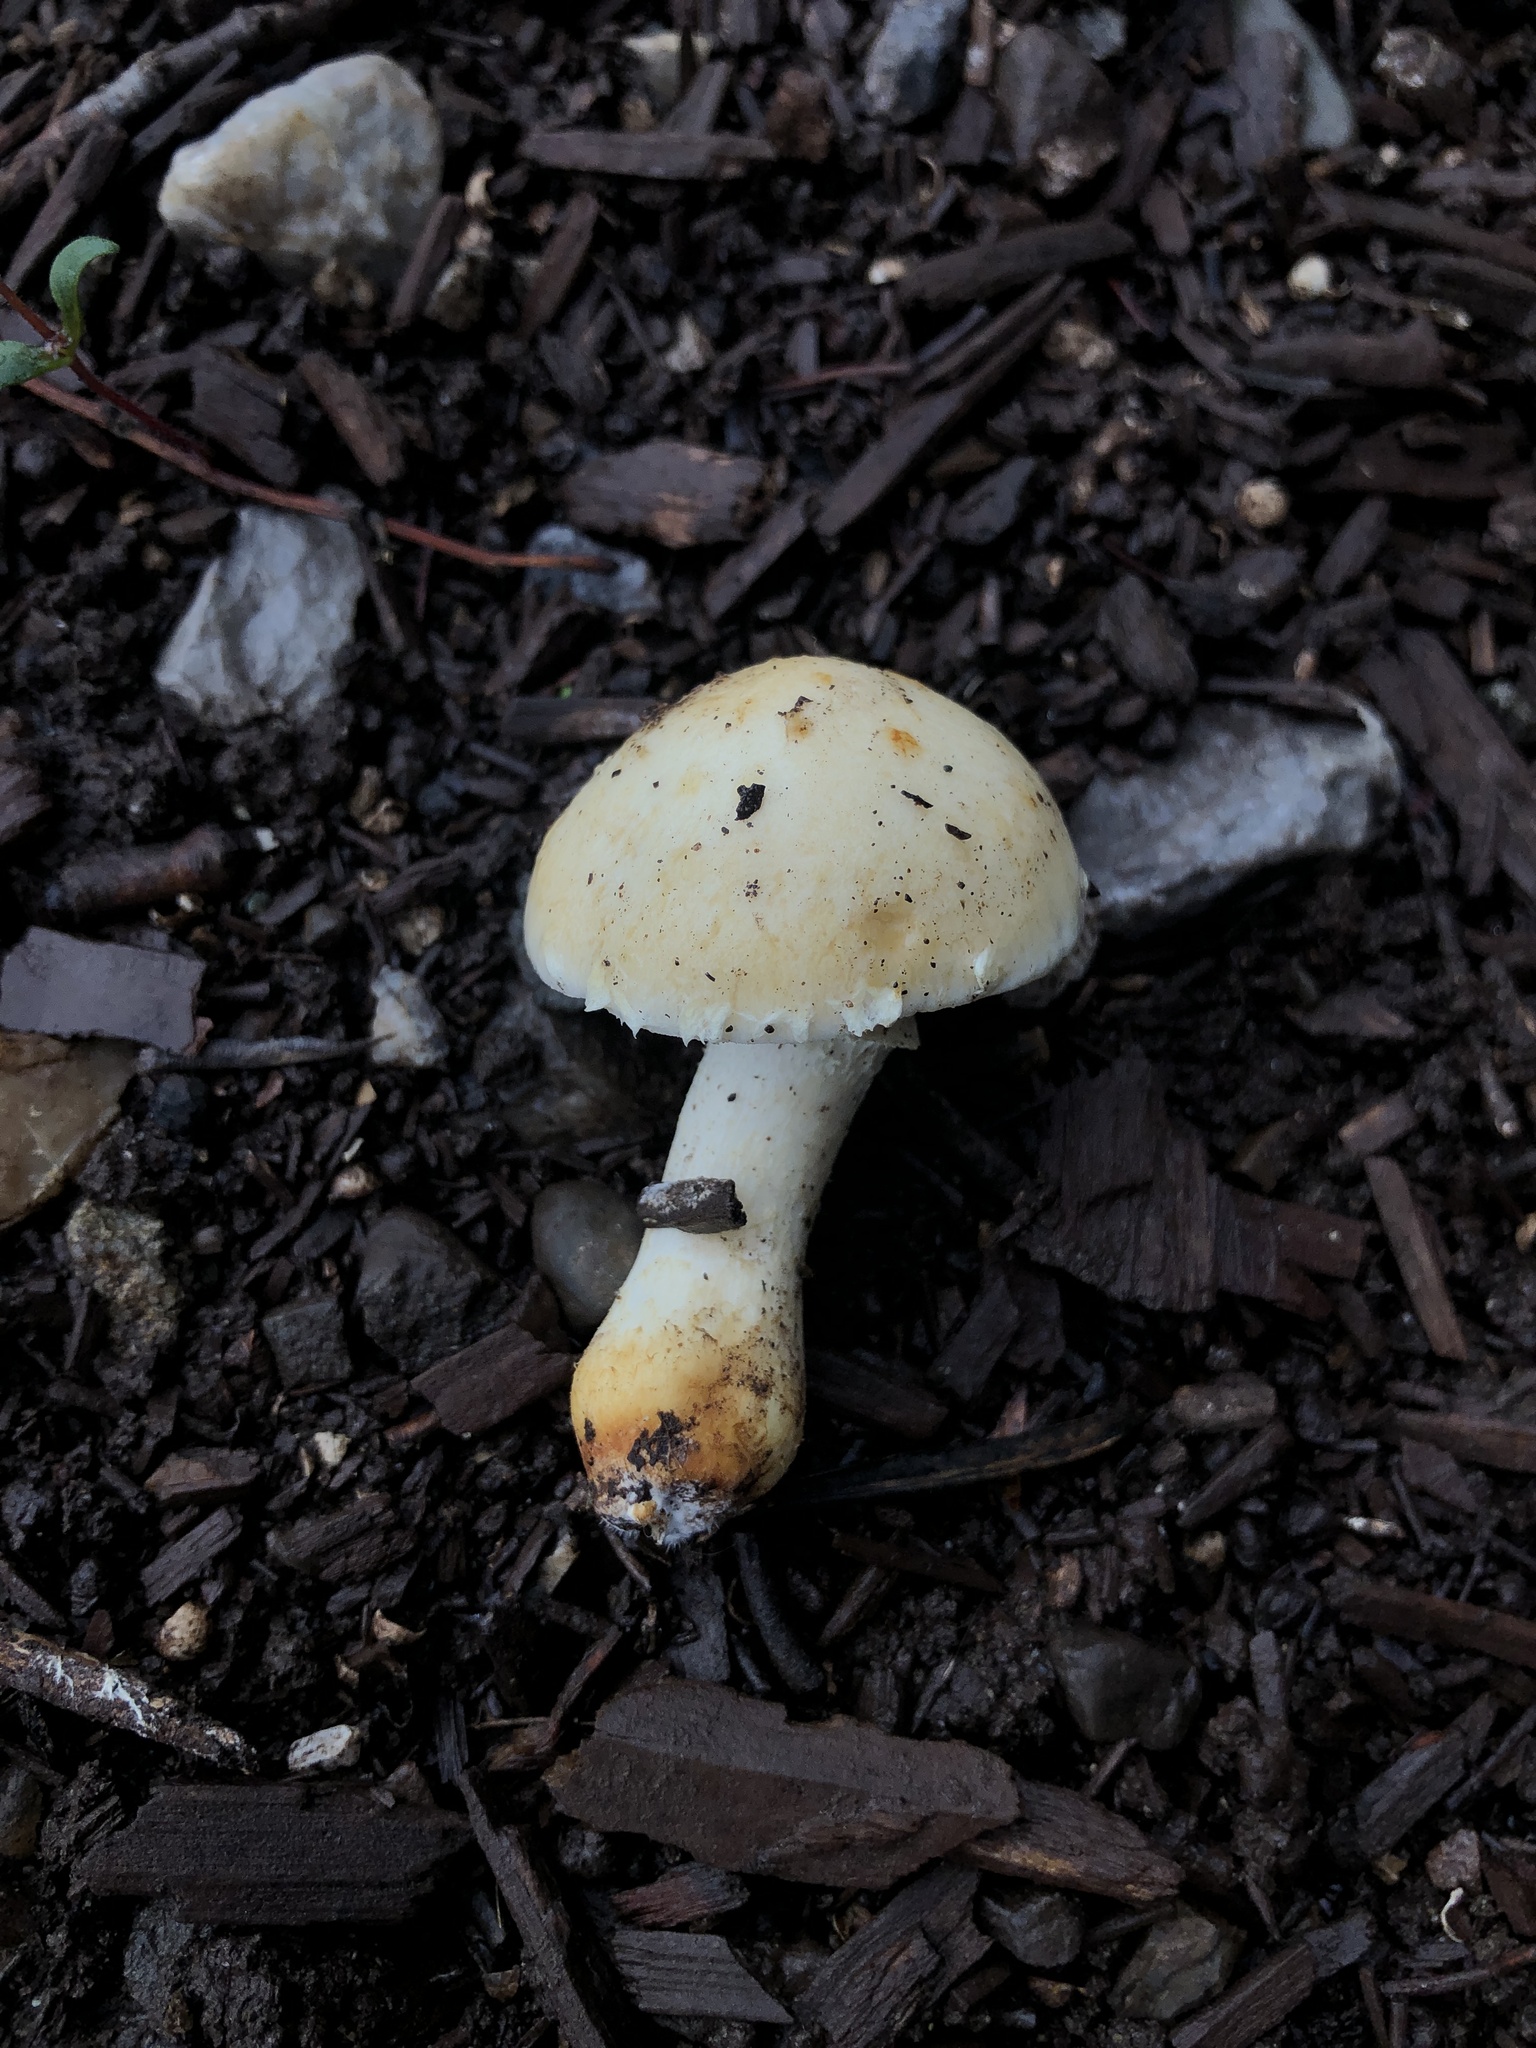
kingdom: Fungi
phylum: Basidiomycota
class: Agaricomycetes
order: Agaricales
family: Strophariaceae
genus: Leratiomyces
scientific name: Leratiomyces percevalii
